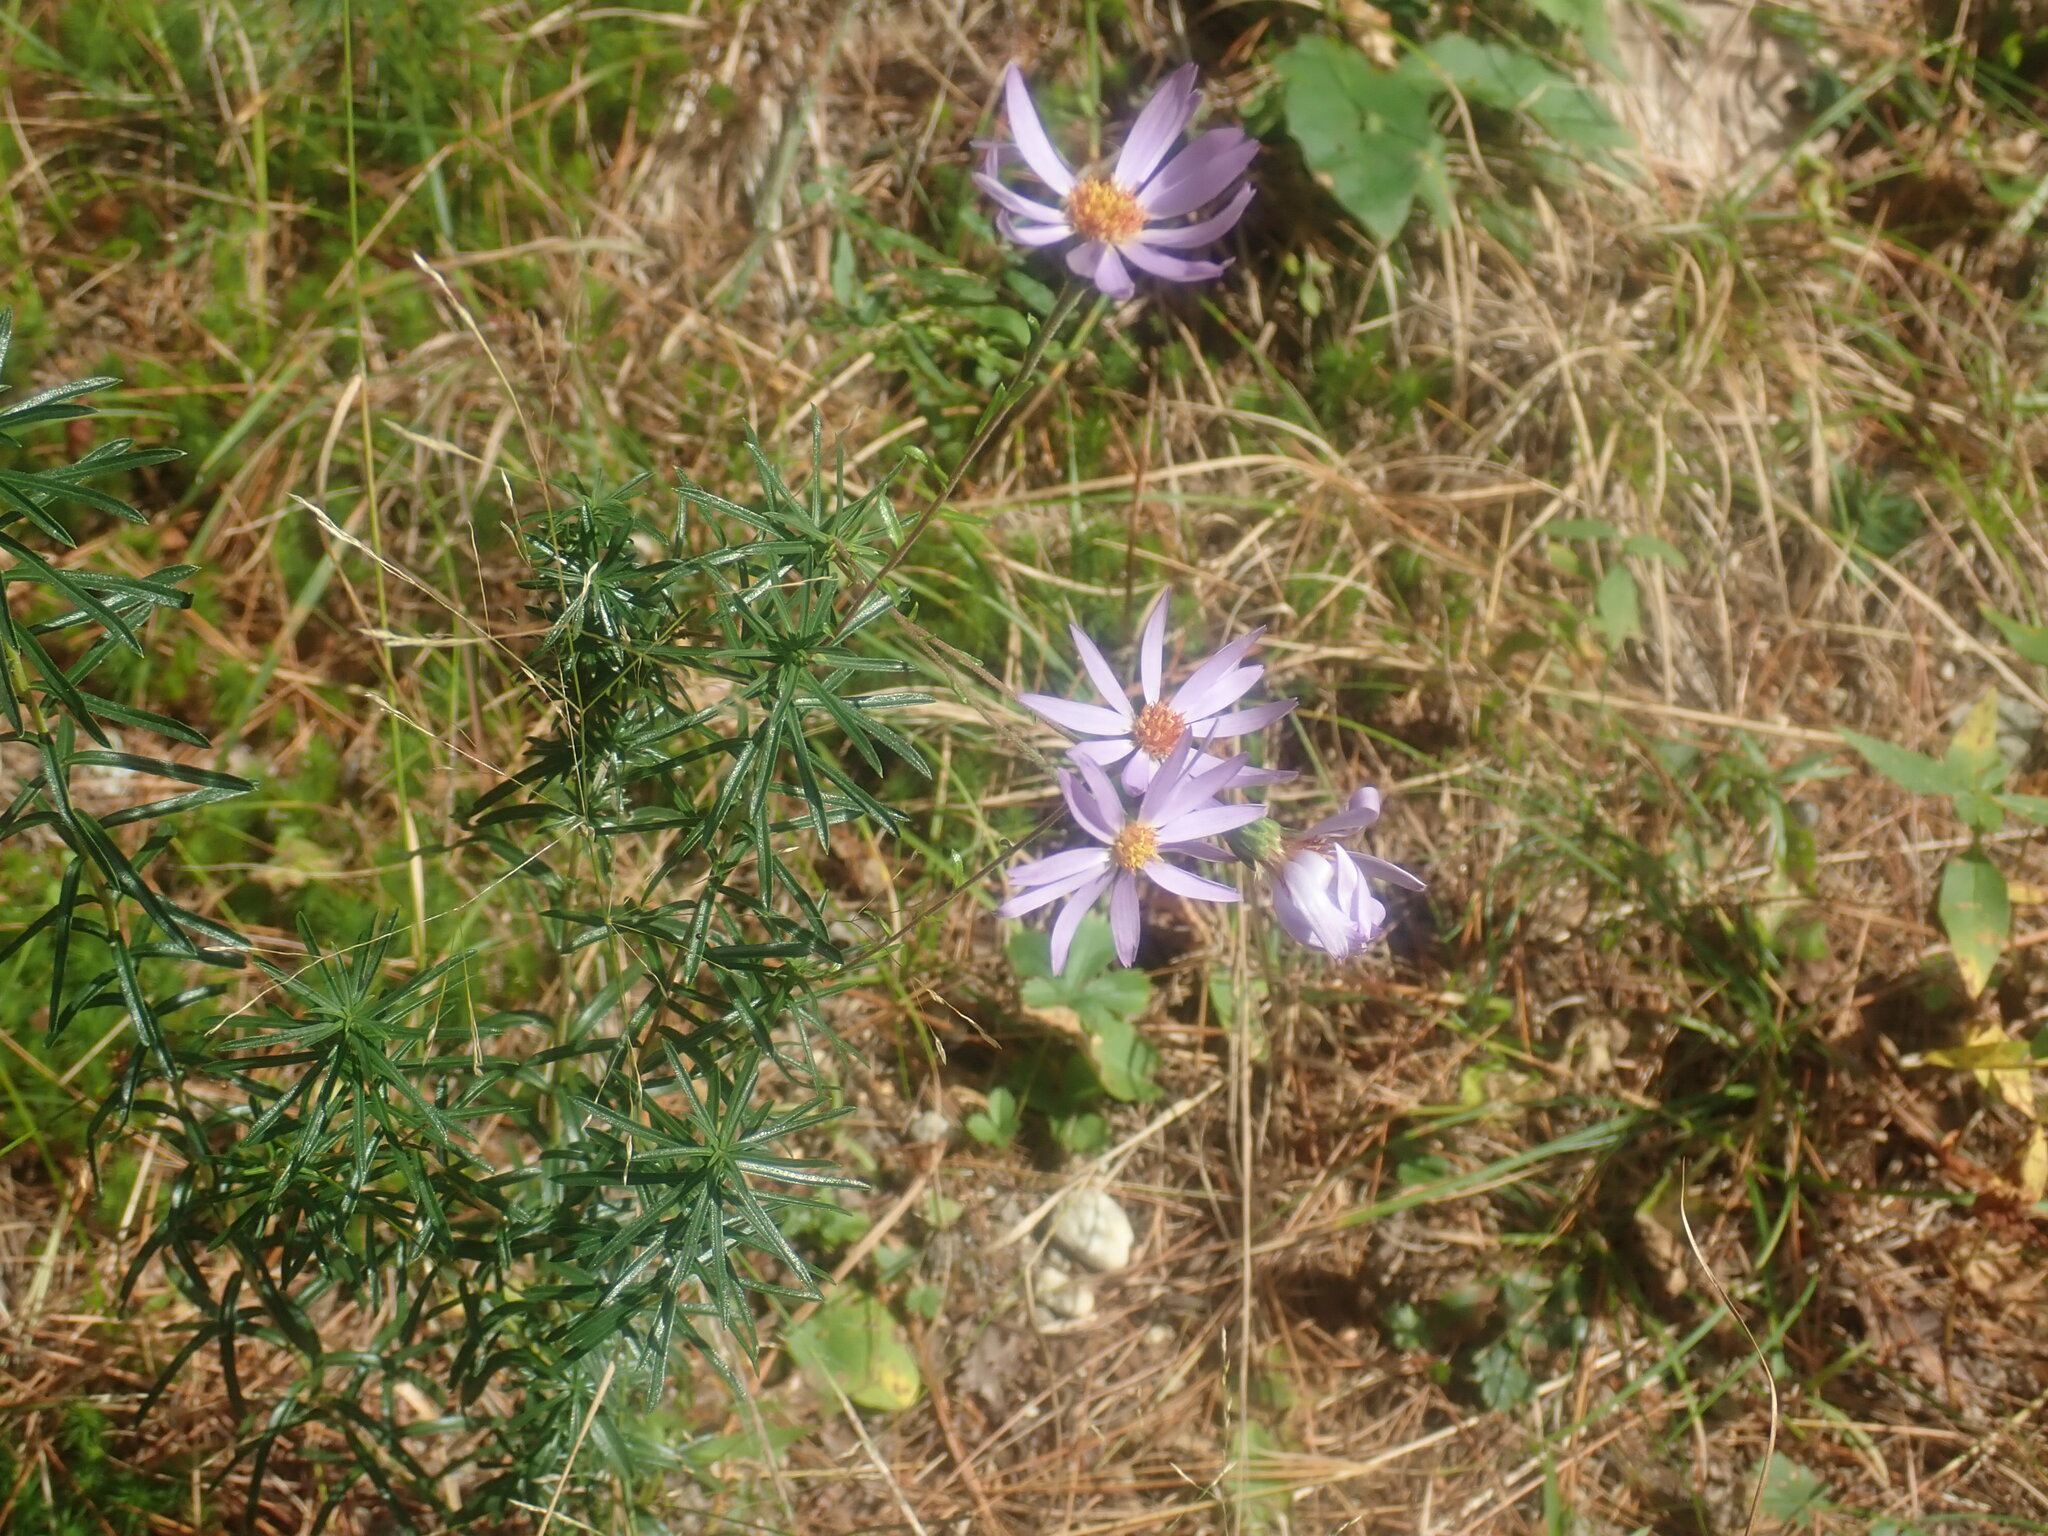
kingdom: Plantae
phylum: Tracheophyta
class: Magnoliopsida
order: Asterales
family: Asteraceae
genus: Ionactis
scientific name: Ionactis linariifolia
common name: Flax-leaf aster
